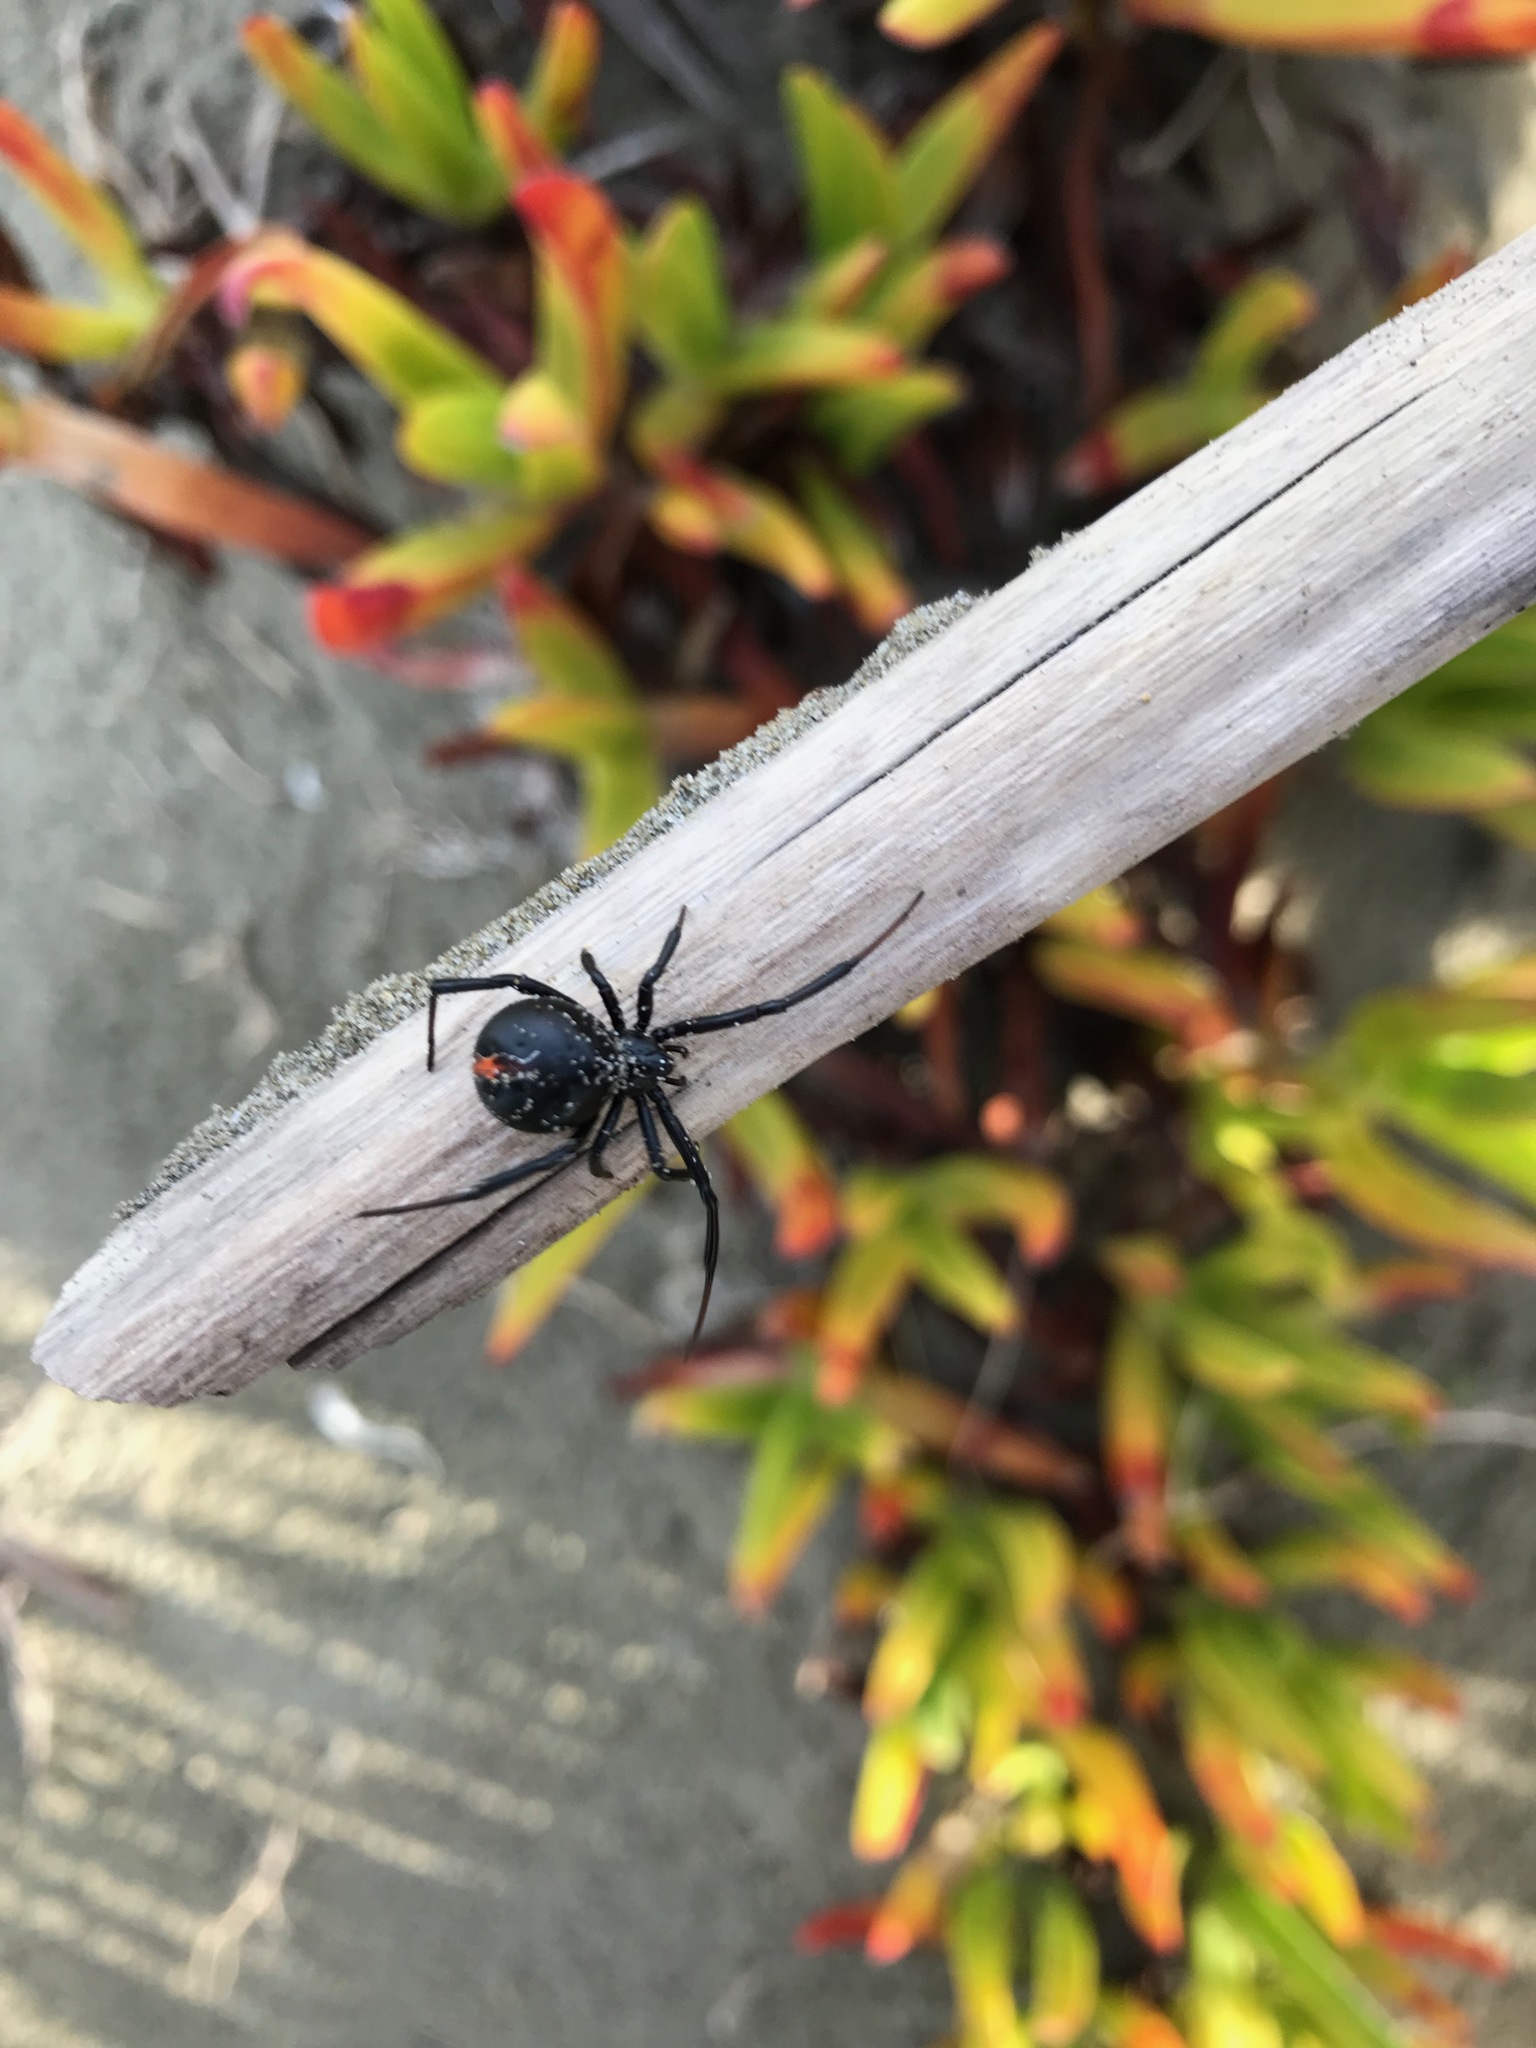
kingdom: Animalia
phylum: Arthropoda
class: Arachnida
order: Araneae
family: Theridiidae
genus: Latrodectus
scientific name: Latrodectus katipo
